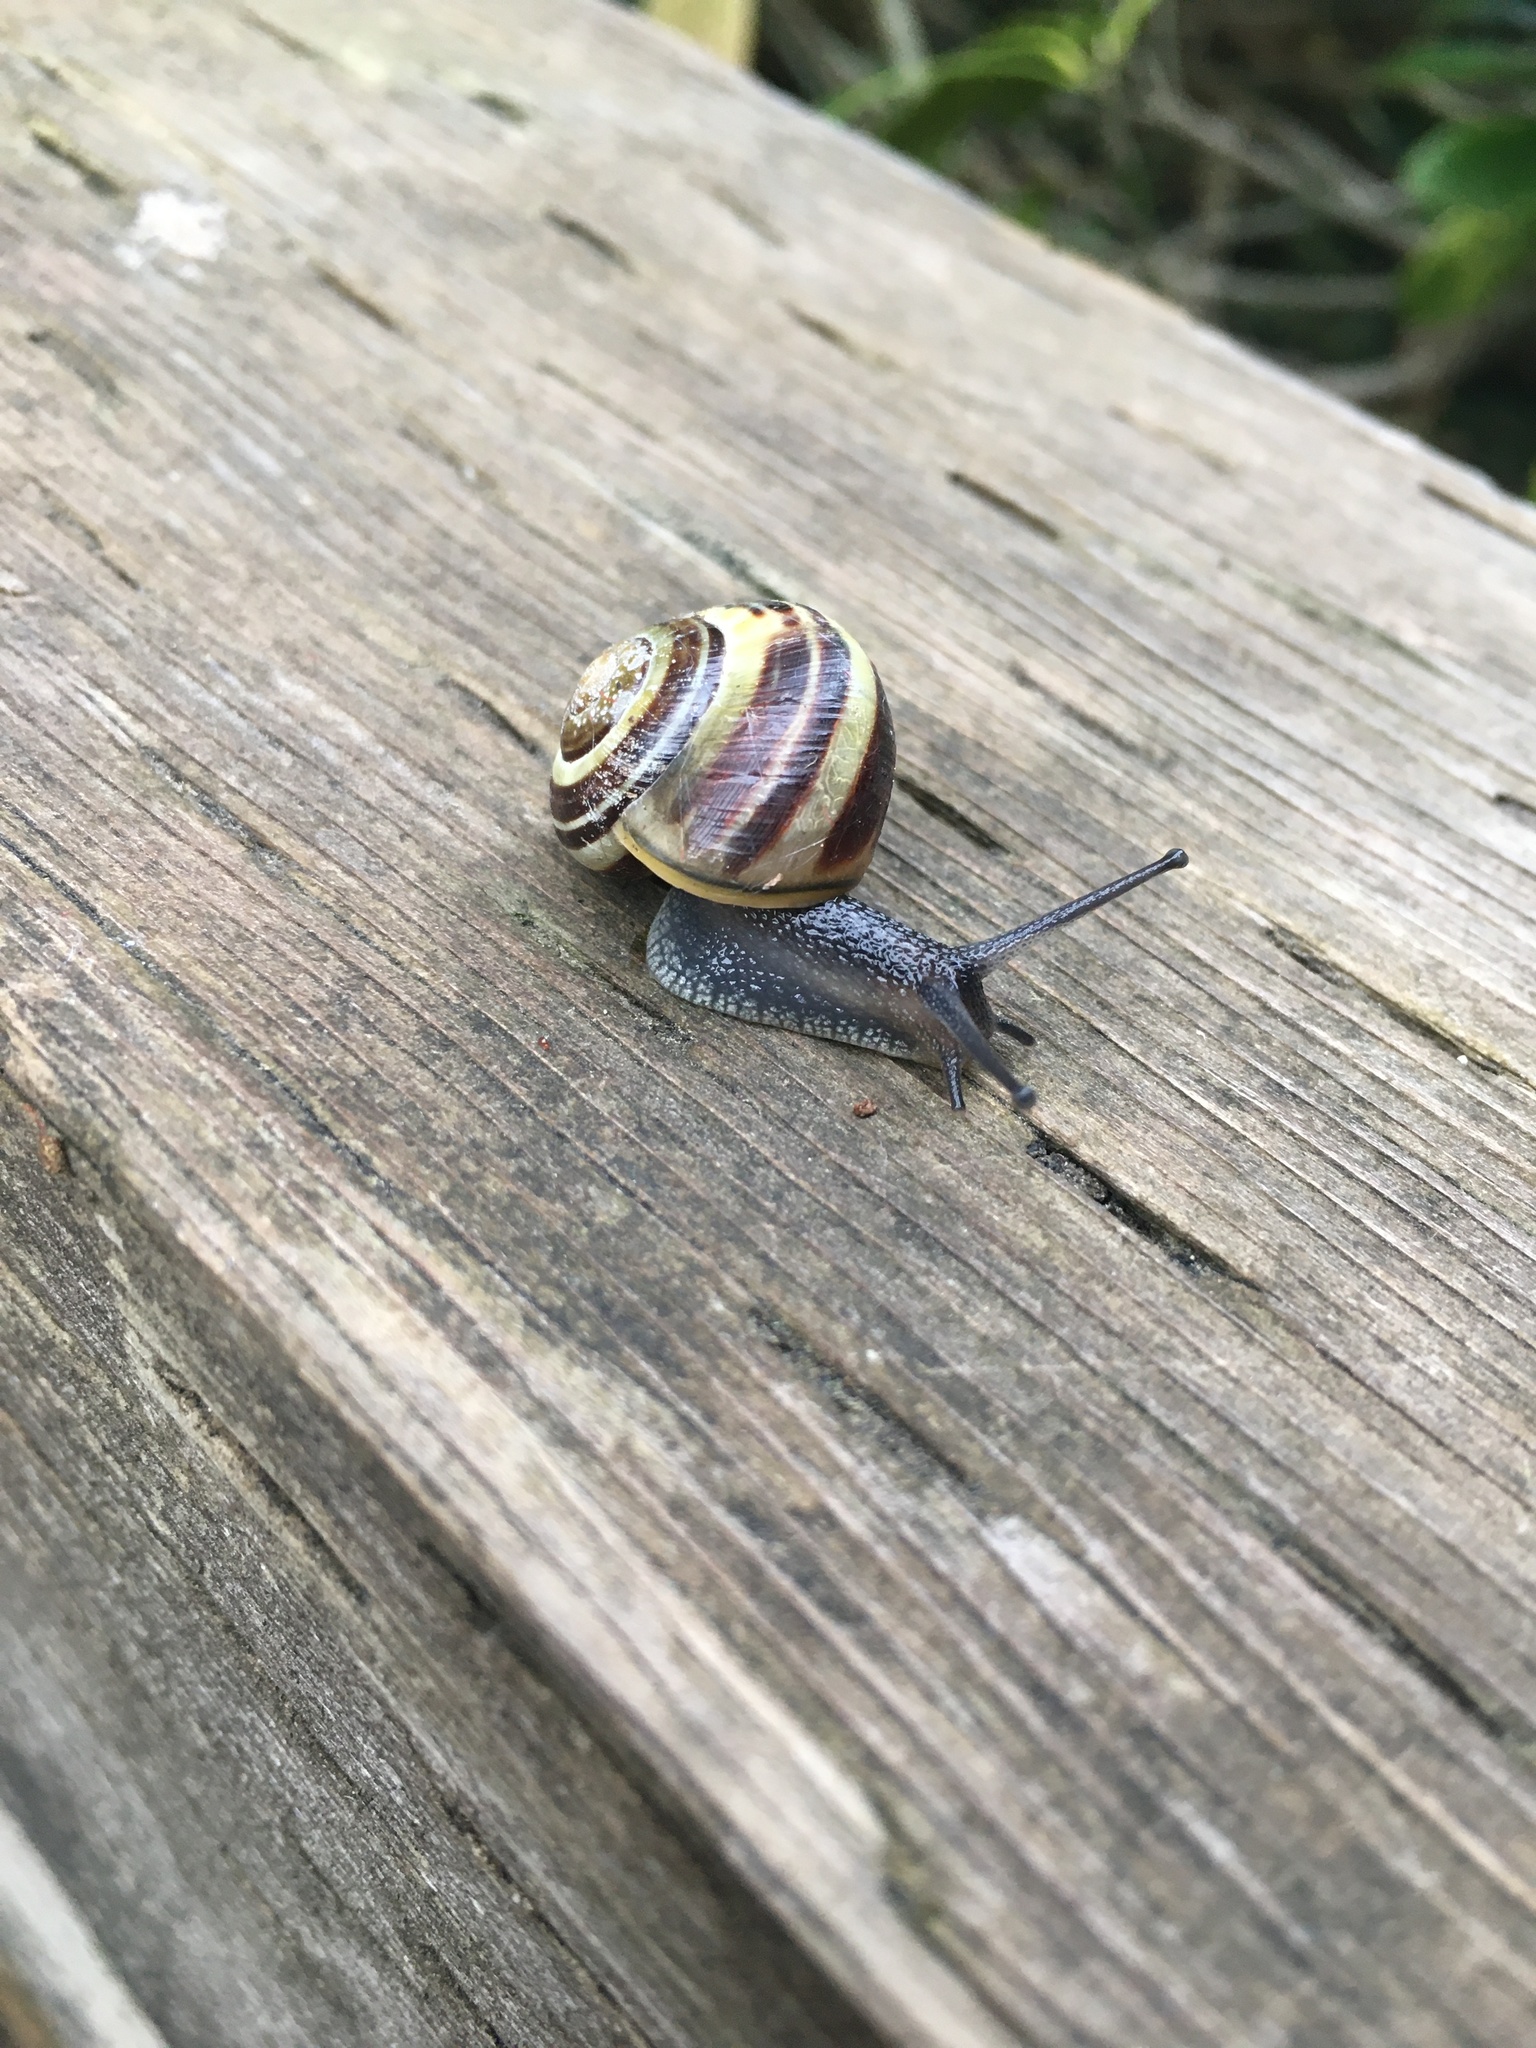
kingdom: Animalia
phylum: Mollusca
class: Gastropoda
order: Stylommatophora
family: Helicidae
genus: Cepaea
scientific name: Cepaea nemoralis
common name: Grovesnail
